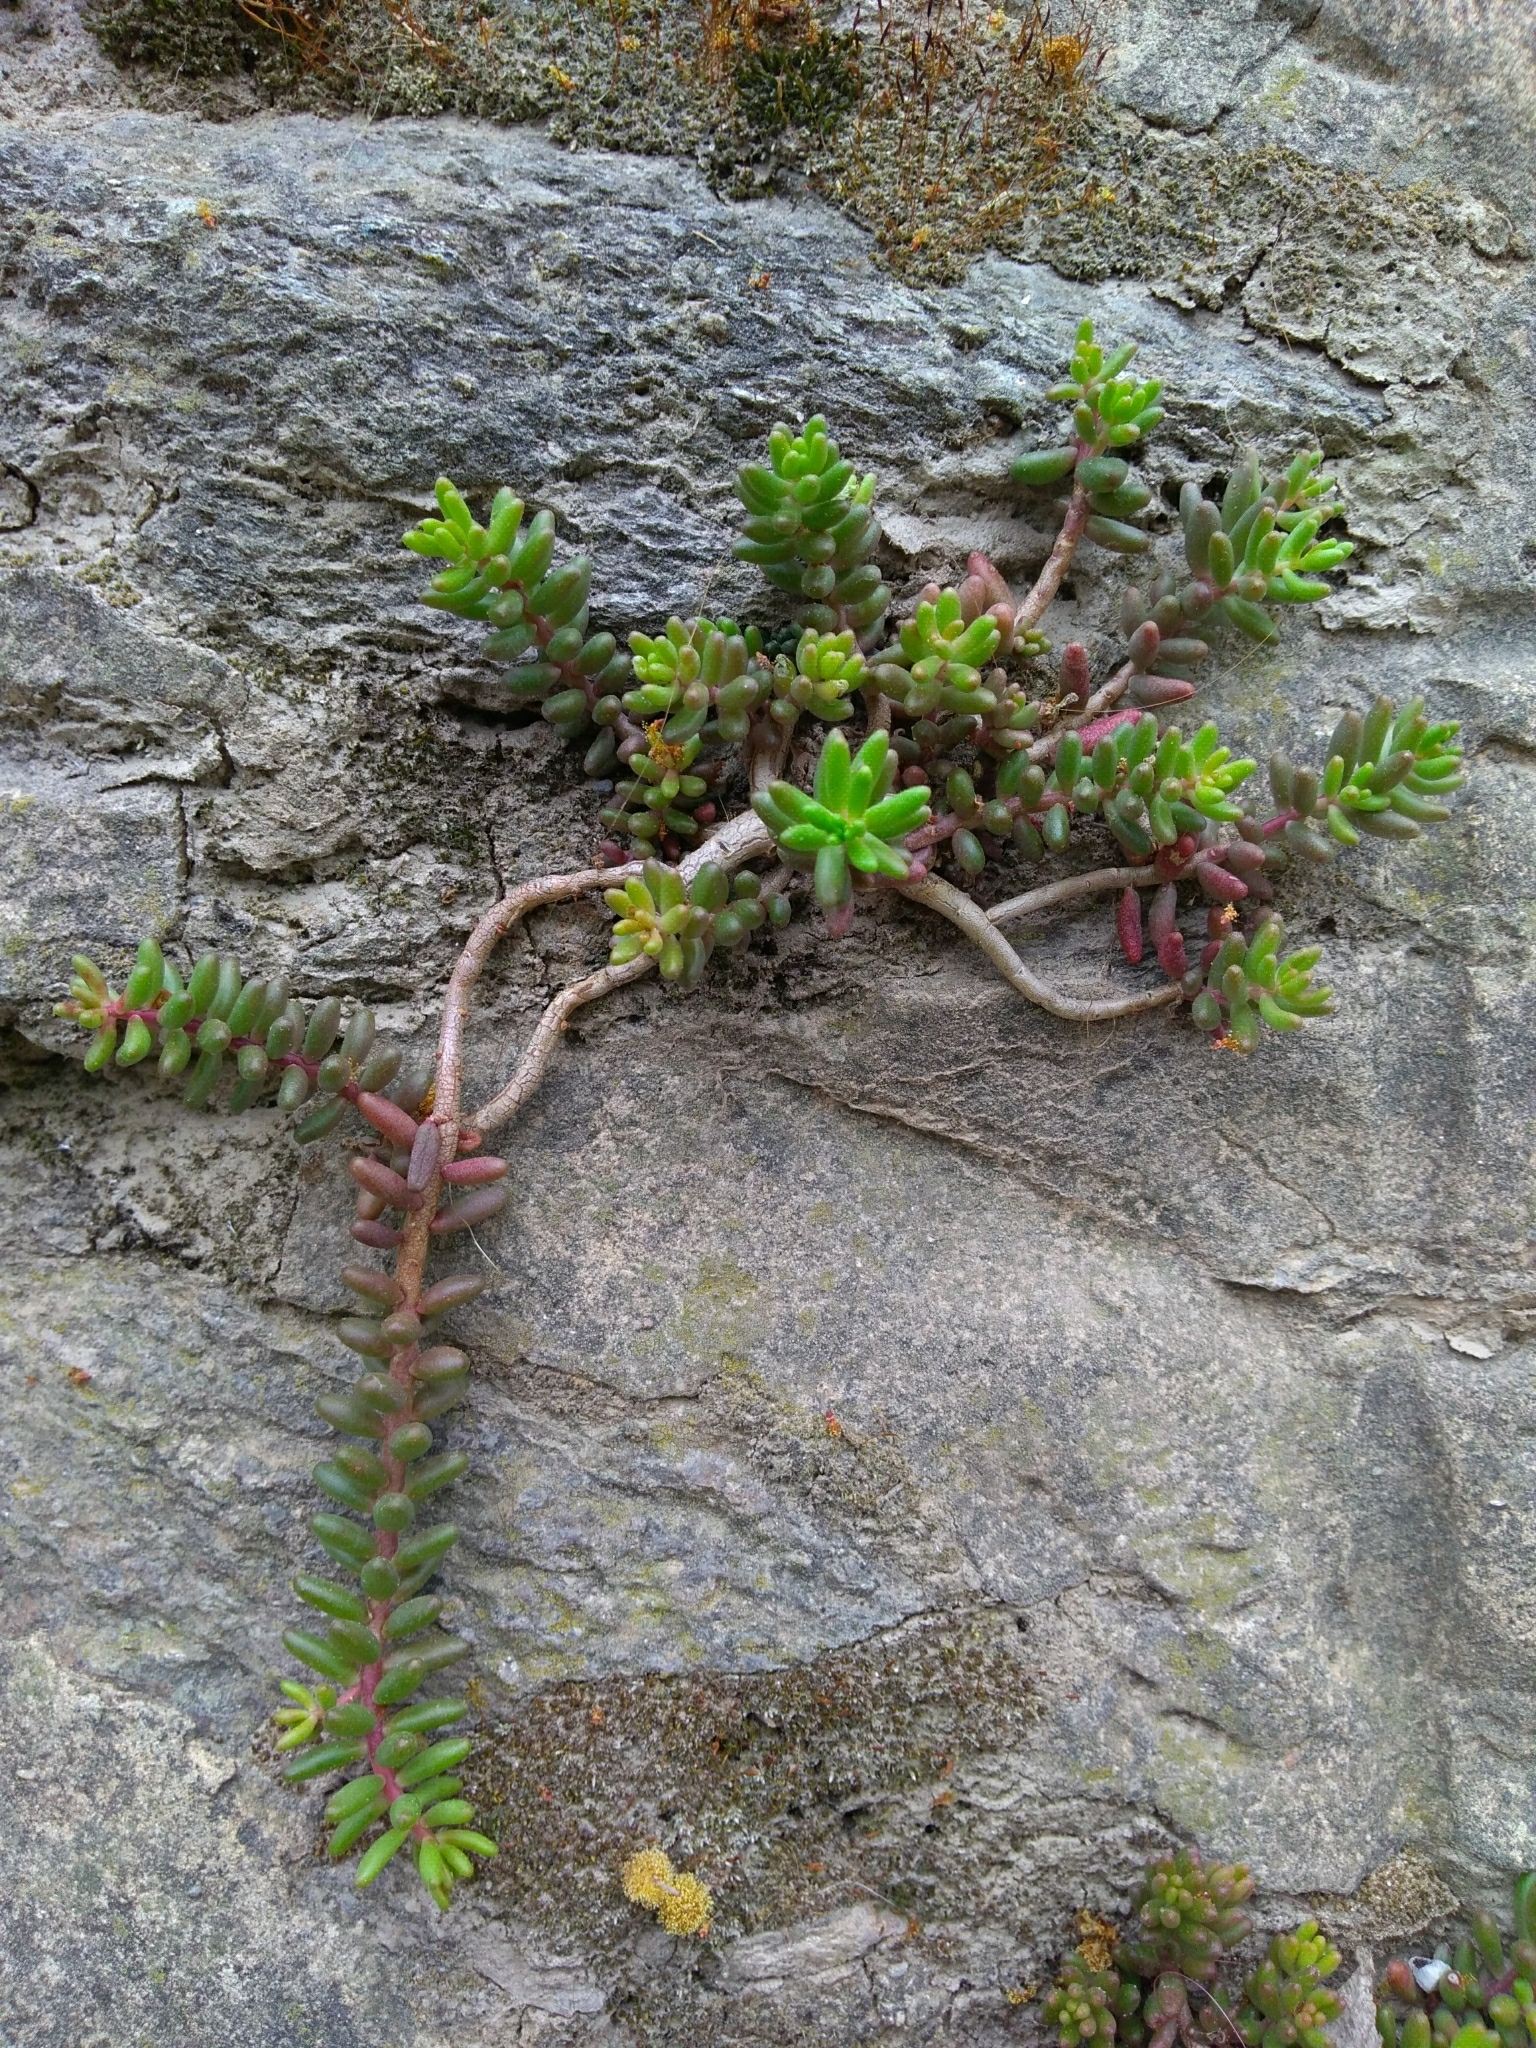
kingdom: Plantae
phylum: Tracheophyta
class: Magnoliopsida
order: Saxifragales
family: Crassulaceae
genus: Sedum
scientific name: Sedum album
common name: White stonecrop
